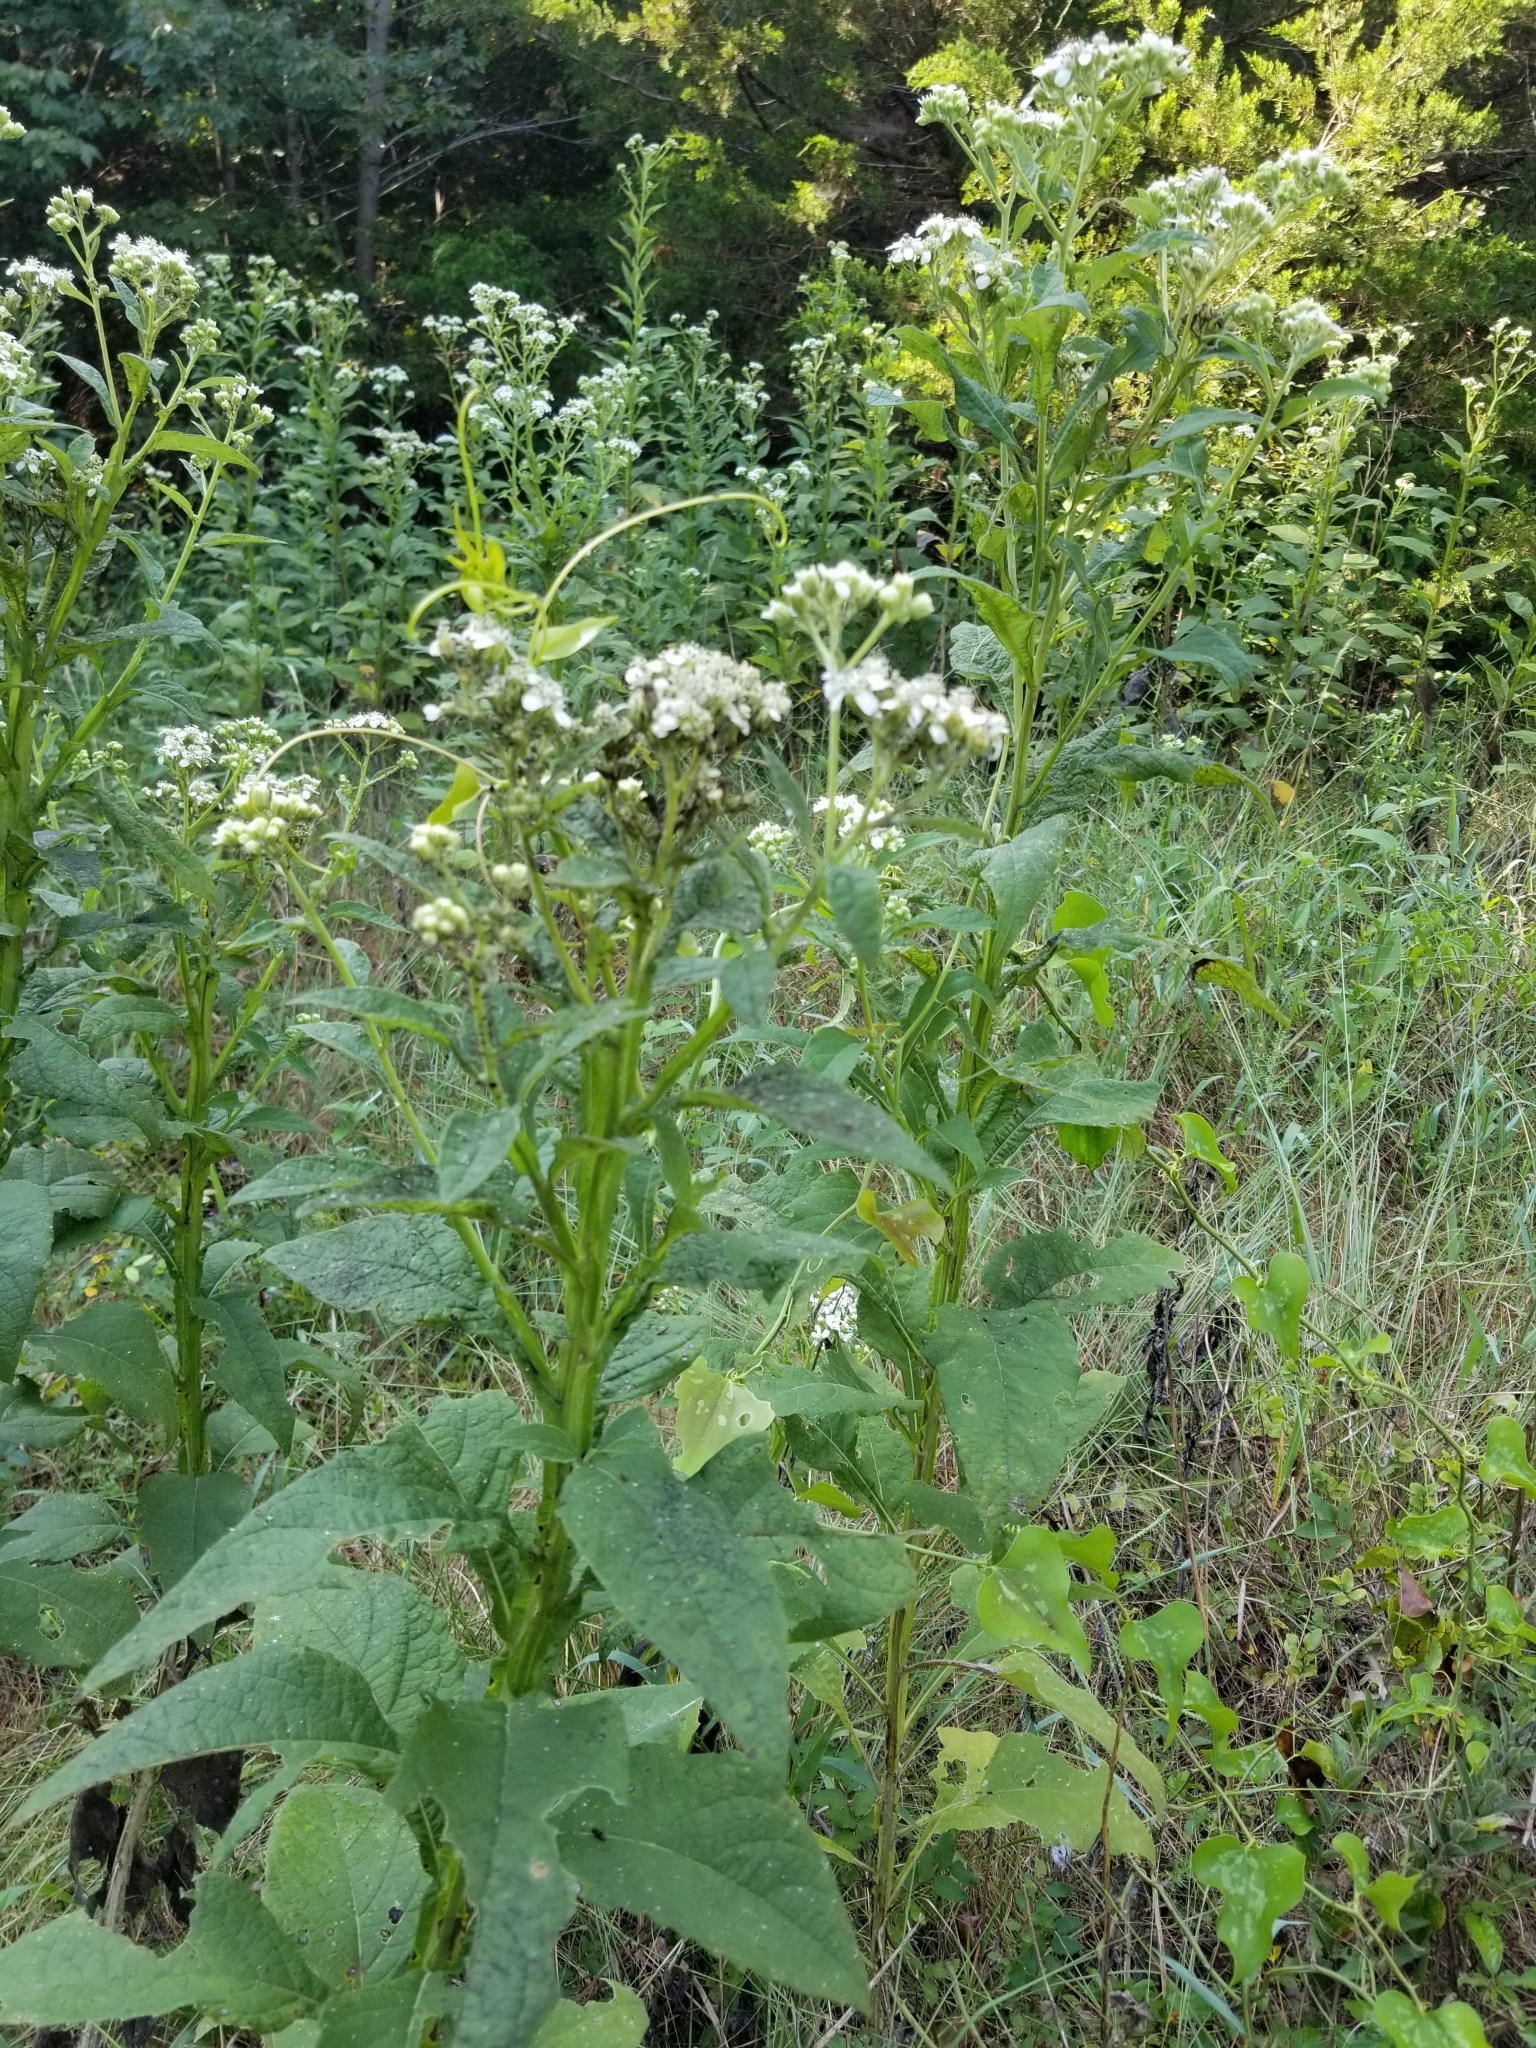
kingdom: Plantae
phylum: Tracheophyta
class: Magnoliopsida
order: Asterales
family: Asteraceae
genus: Verbesina
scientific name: Verbesina virginica
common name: Frostweed
